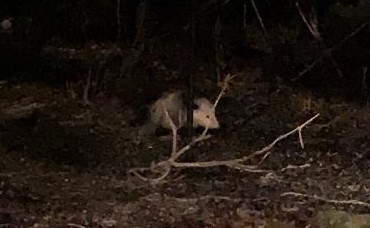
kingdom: Animalia
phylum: Chordata
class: Mammalia
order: Didelphimorphia
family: Didelphidae
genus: Didelphis
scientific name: Didelphis virginiana
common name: Virginia opossum
